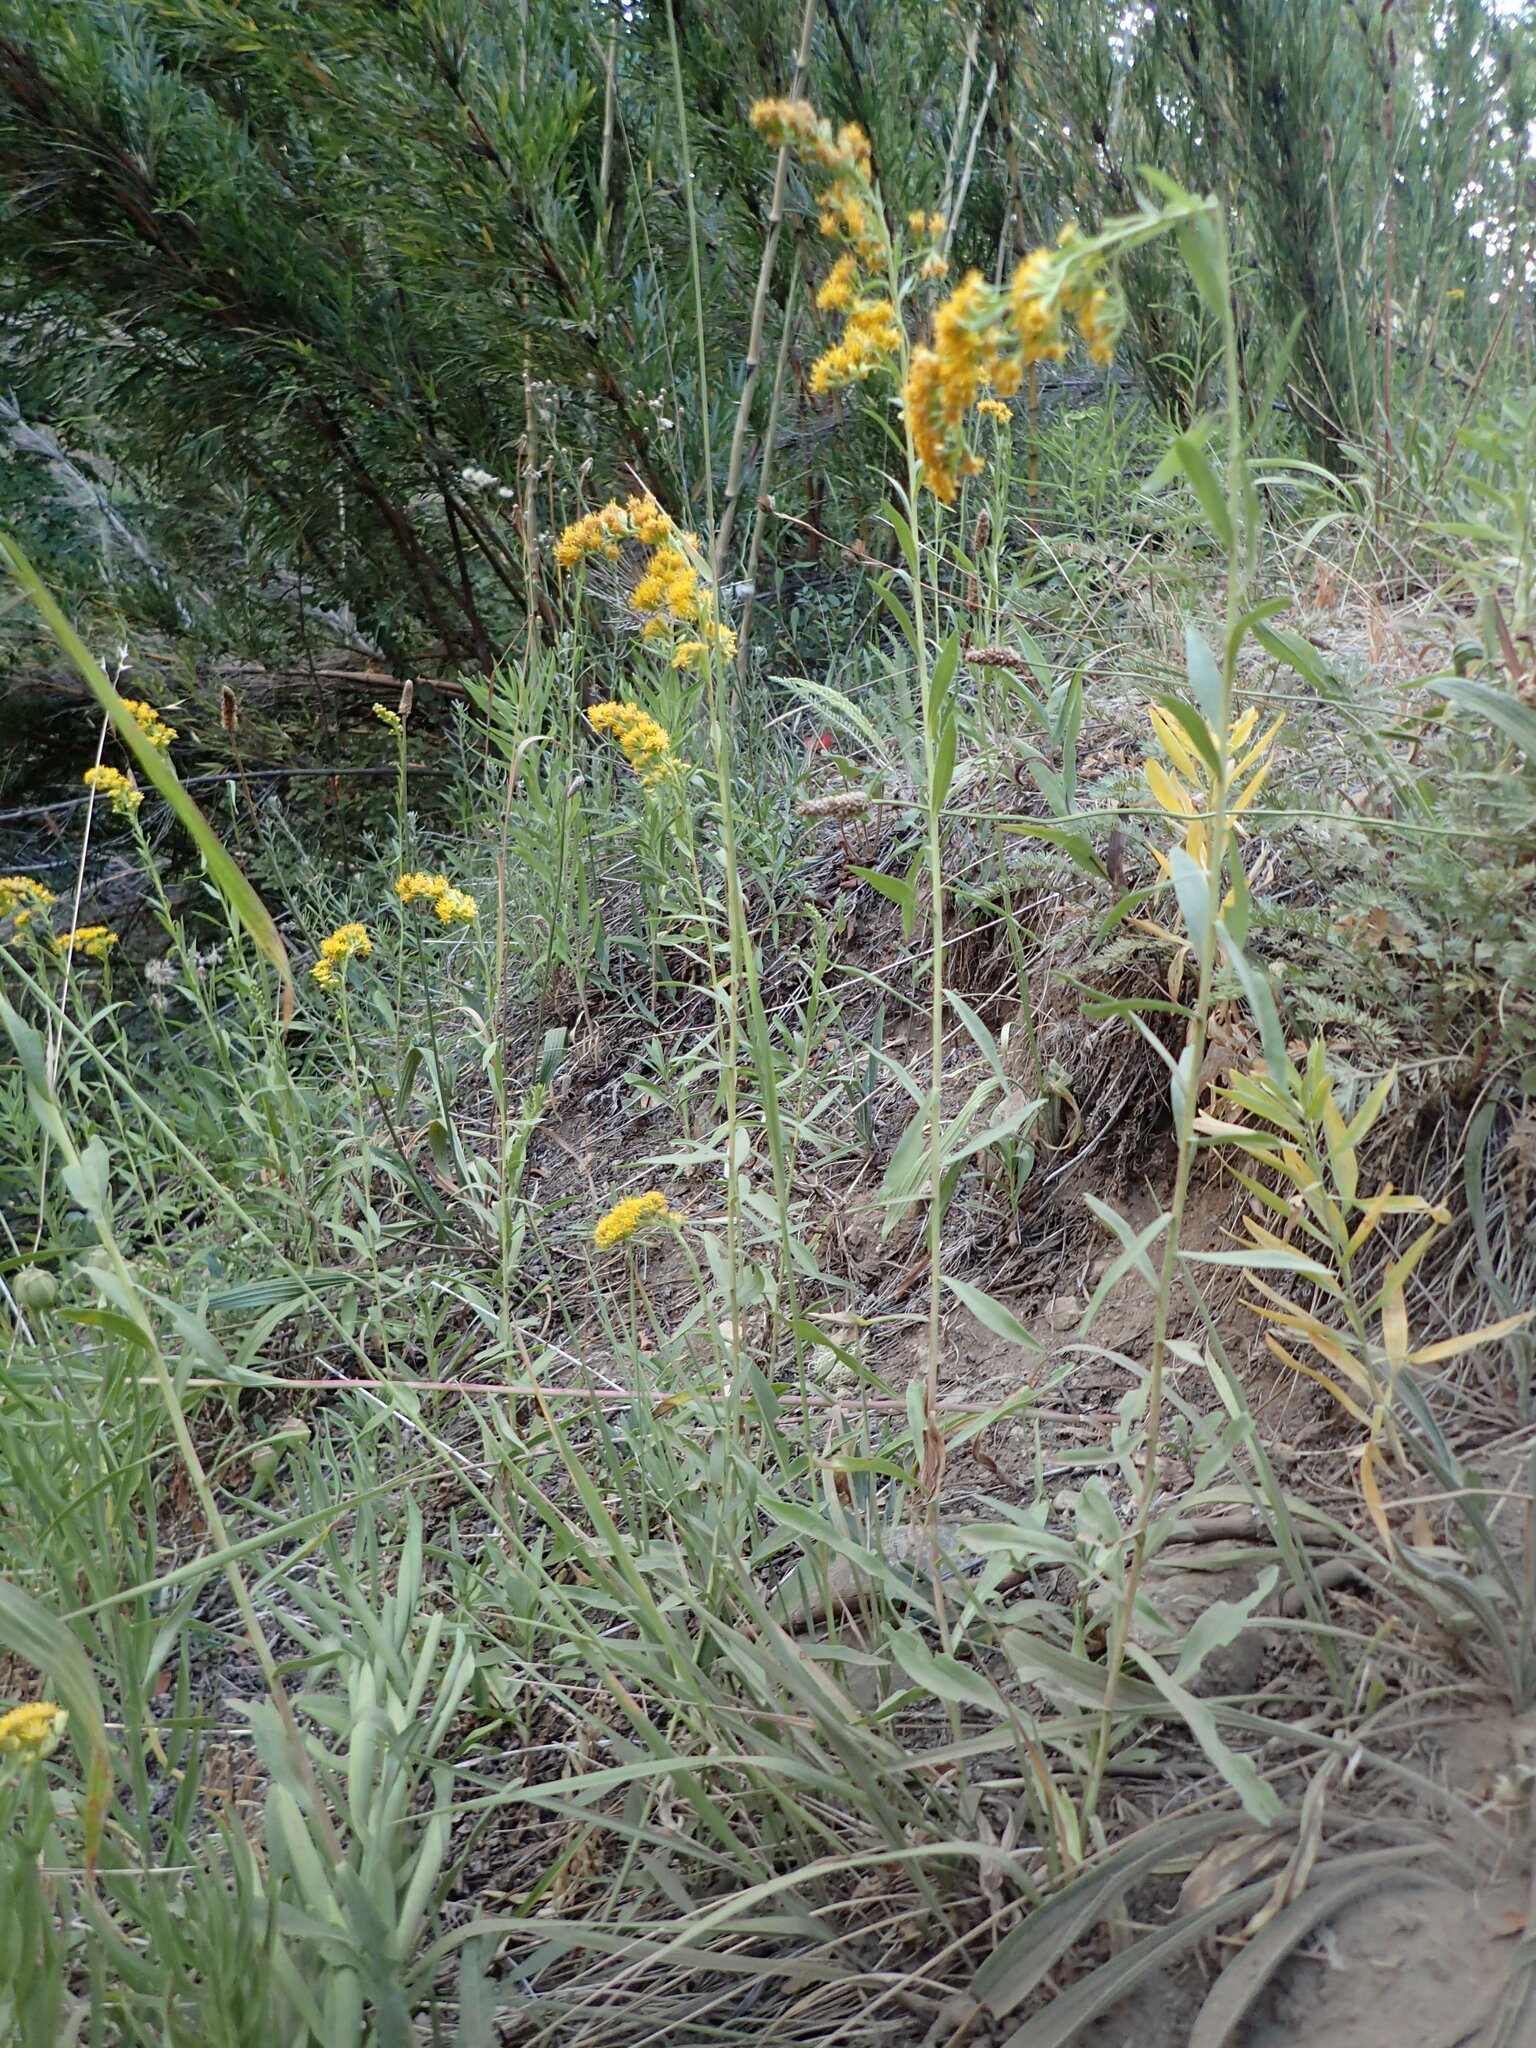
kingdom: Plantae
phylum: Tracheophyta
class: Magnoliopsida
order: Asterales
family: Asteraceae
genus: Solidago
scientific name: Solidago chilensis
